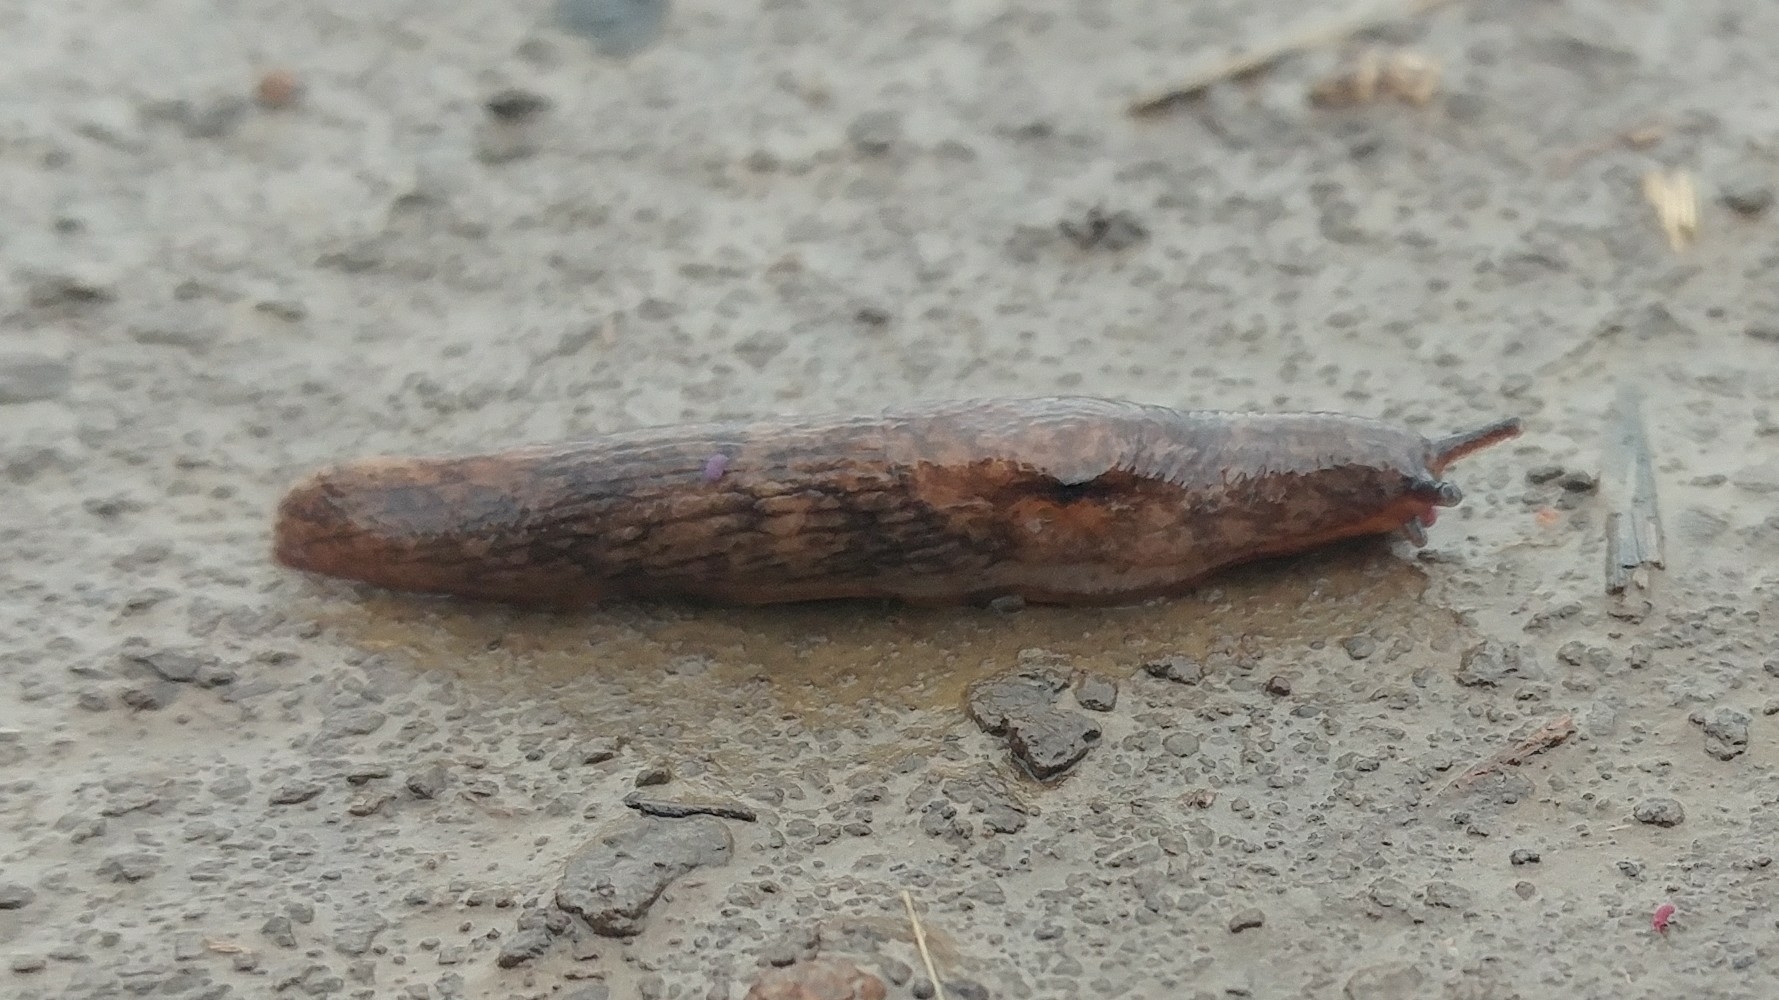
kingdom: Animalia
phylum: Mollusca
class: Gastropoda
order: Stylommatophora
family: Agriolimacidae
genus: Deroceras
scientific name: Deroceras reticulatum
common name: Gray field slug
